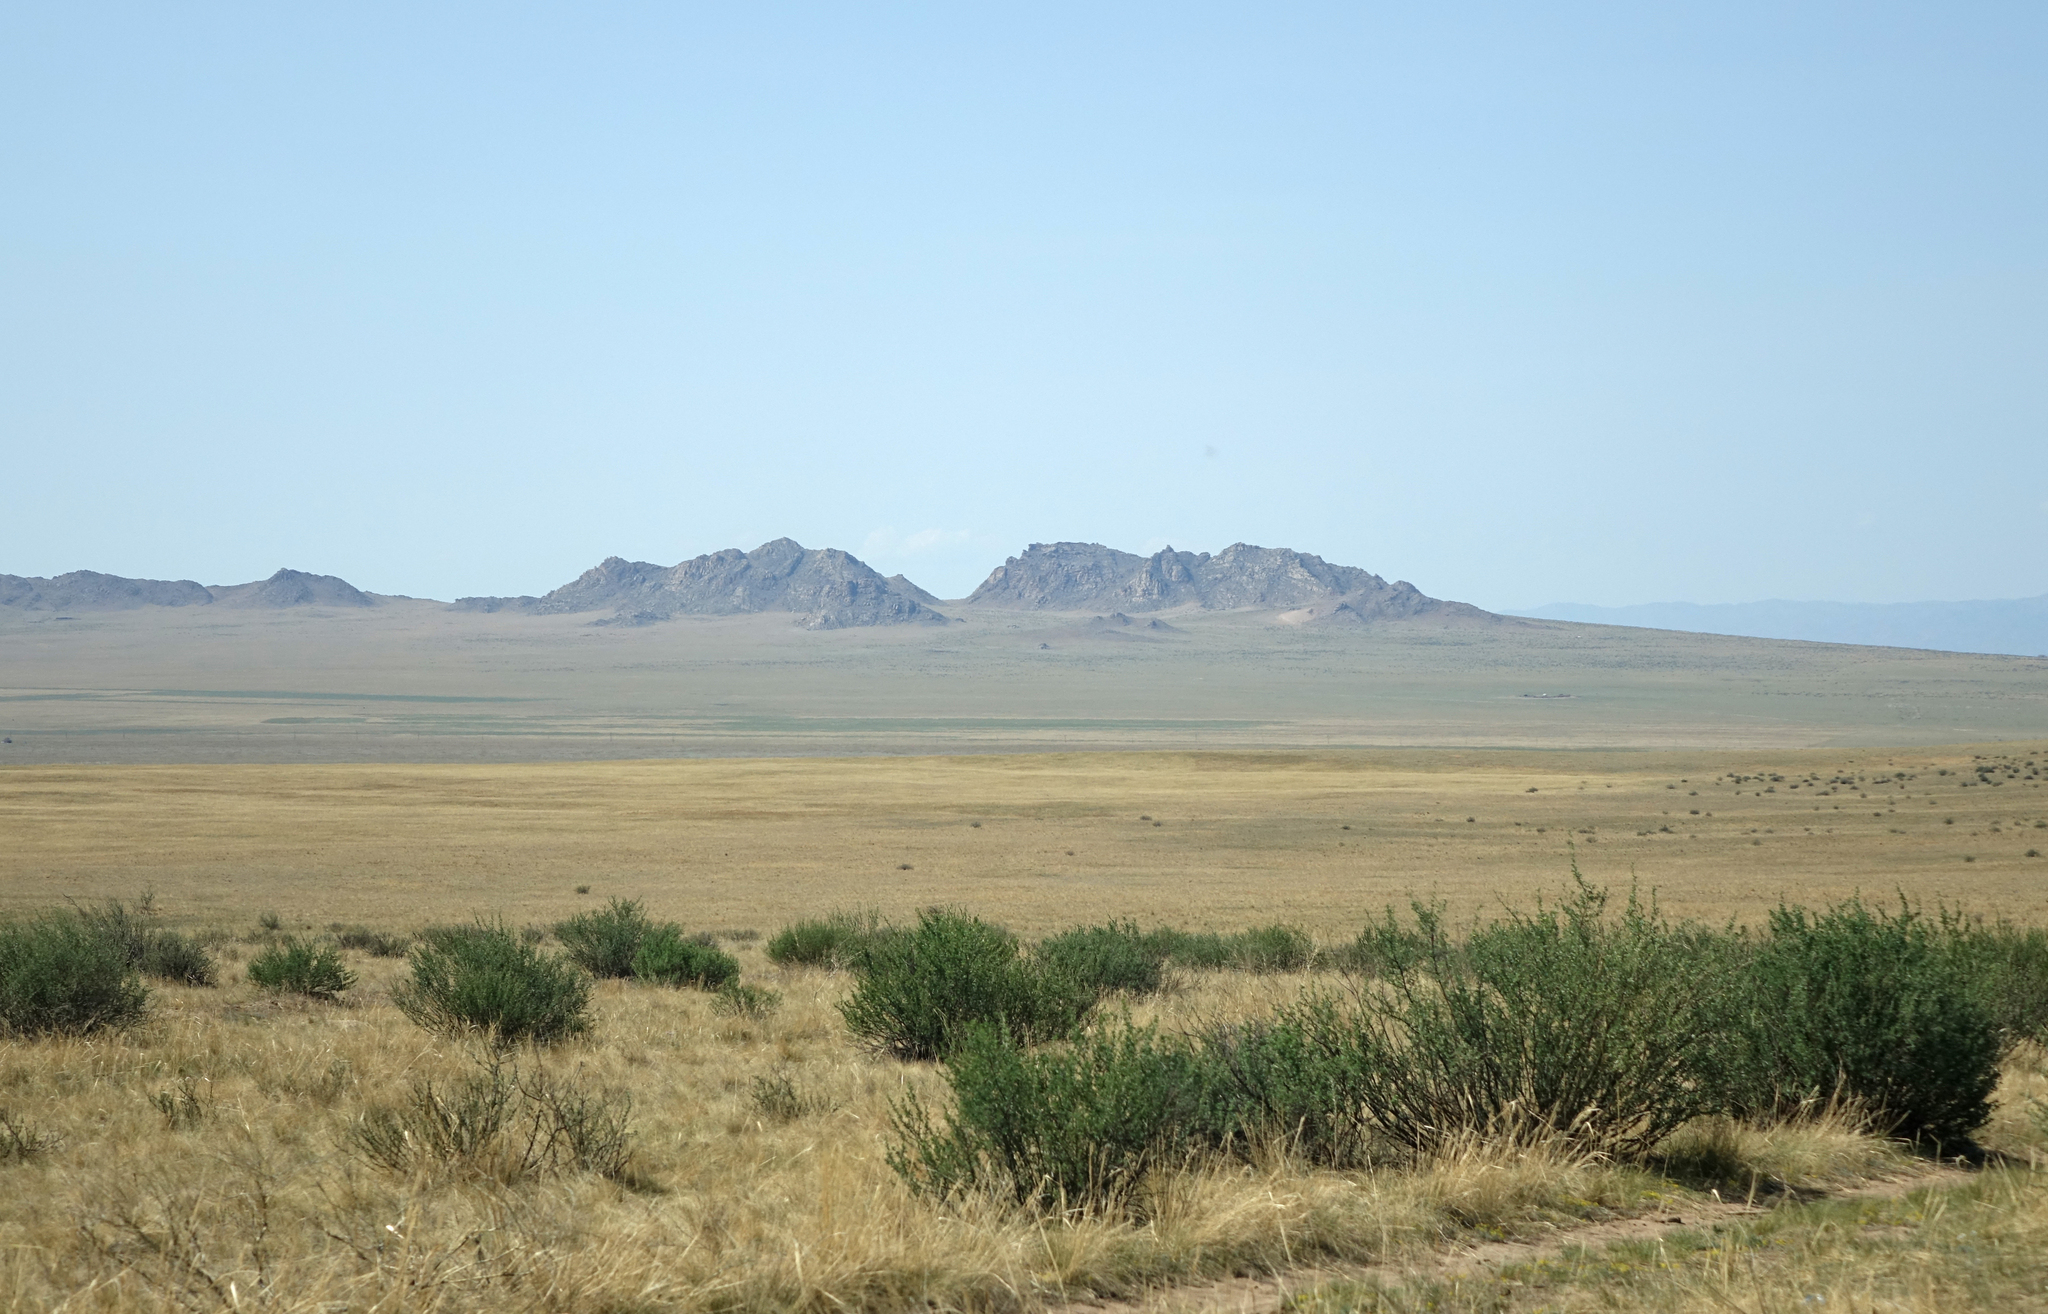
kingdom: Plantae
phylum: Tracheophyta
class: Magnoliopsida
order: Fabales
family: Fabaceae
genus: Caragana
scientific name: Caragana bungei
